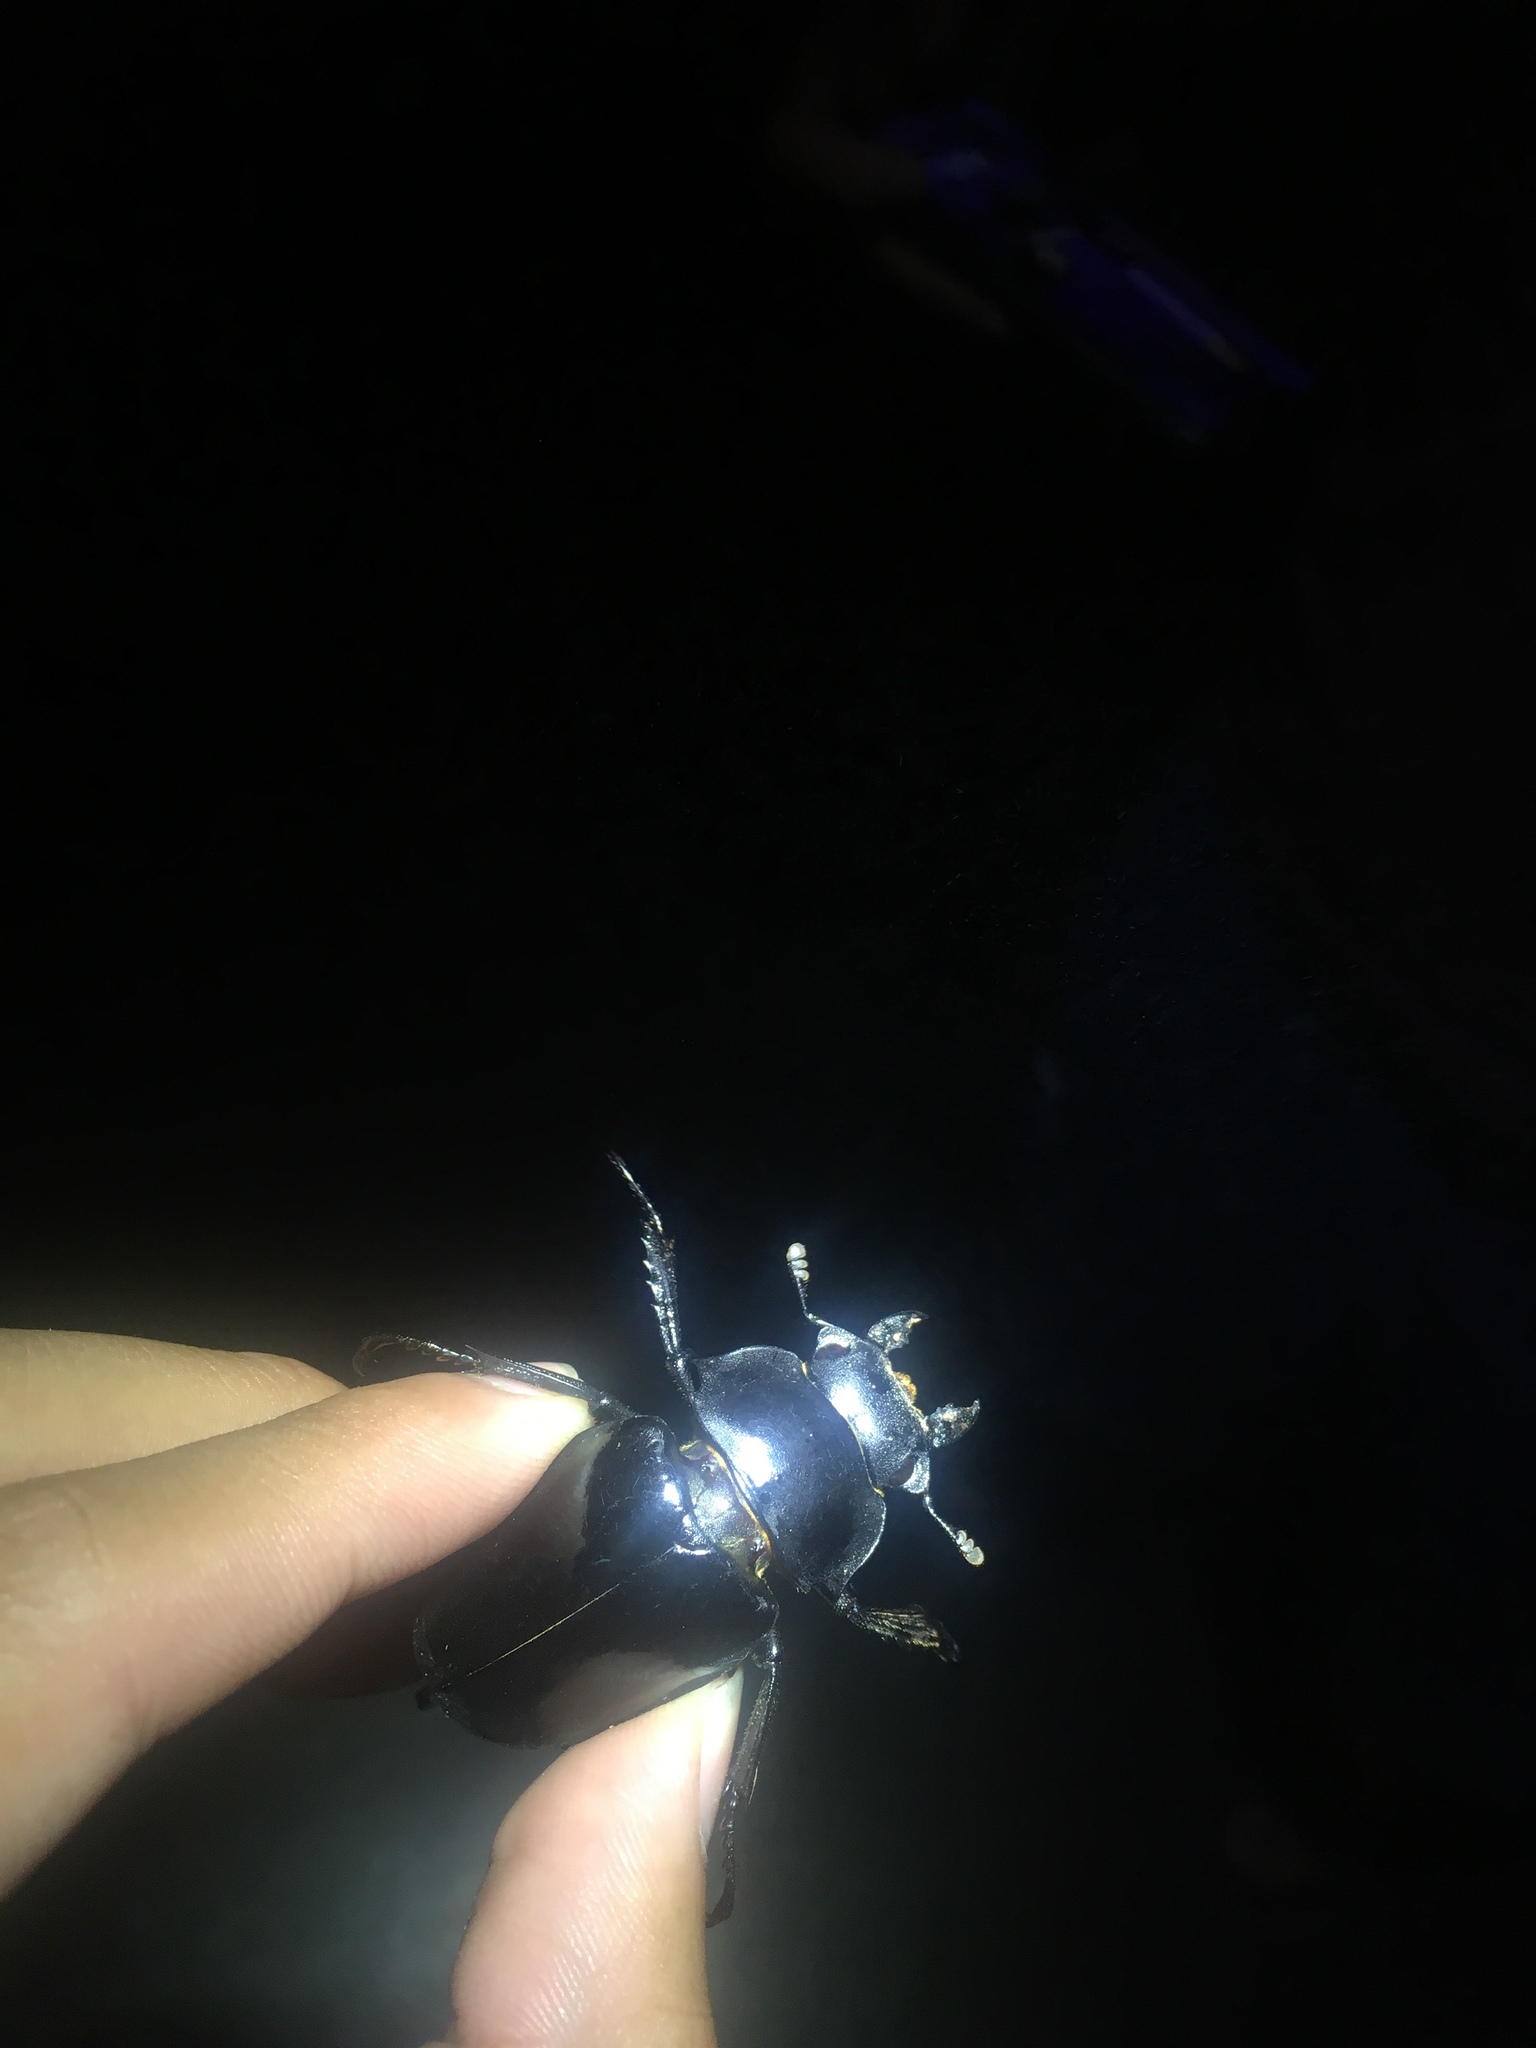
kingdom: Animalia
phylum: Arthropoda
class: Insecta
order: Coleoptera
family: Lucanidae
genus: Odontolabis
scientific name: Odontolabis siva
